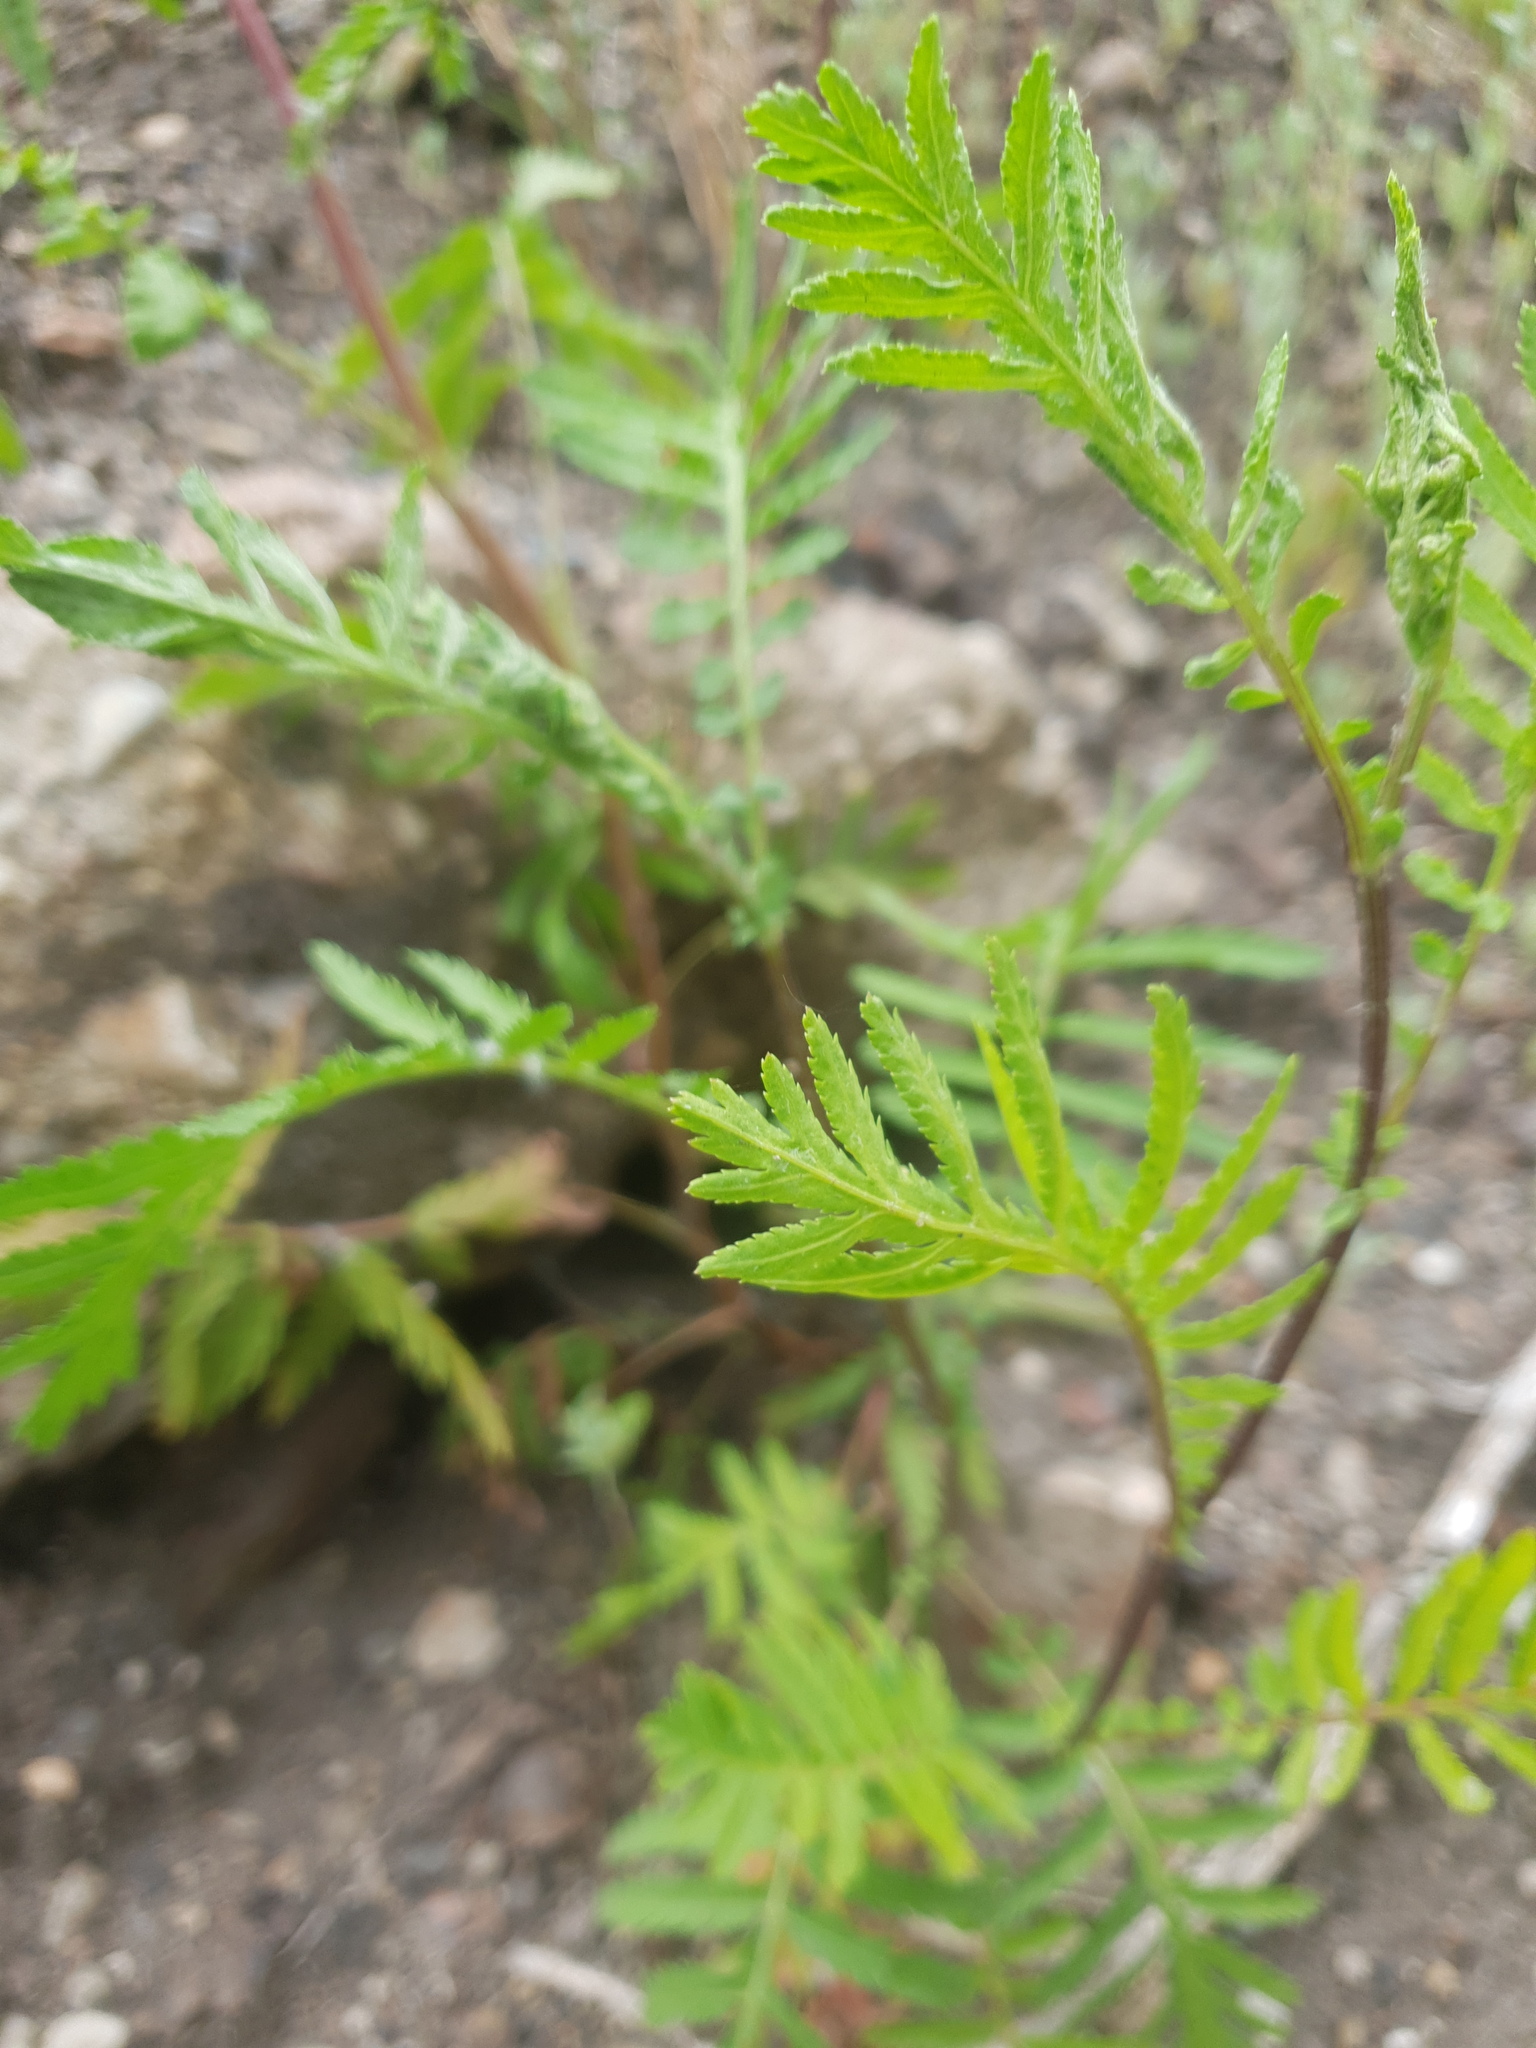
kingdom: Plantae
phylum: Tracheophyta
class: Magnoliopsida
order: Asterales
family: Asteraceae
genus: Tanacetum
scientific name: Tanacetum vulgare
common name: Common tansy
